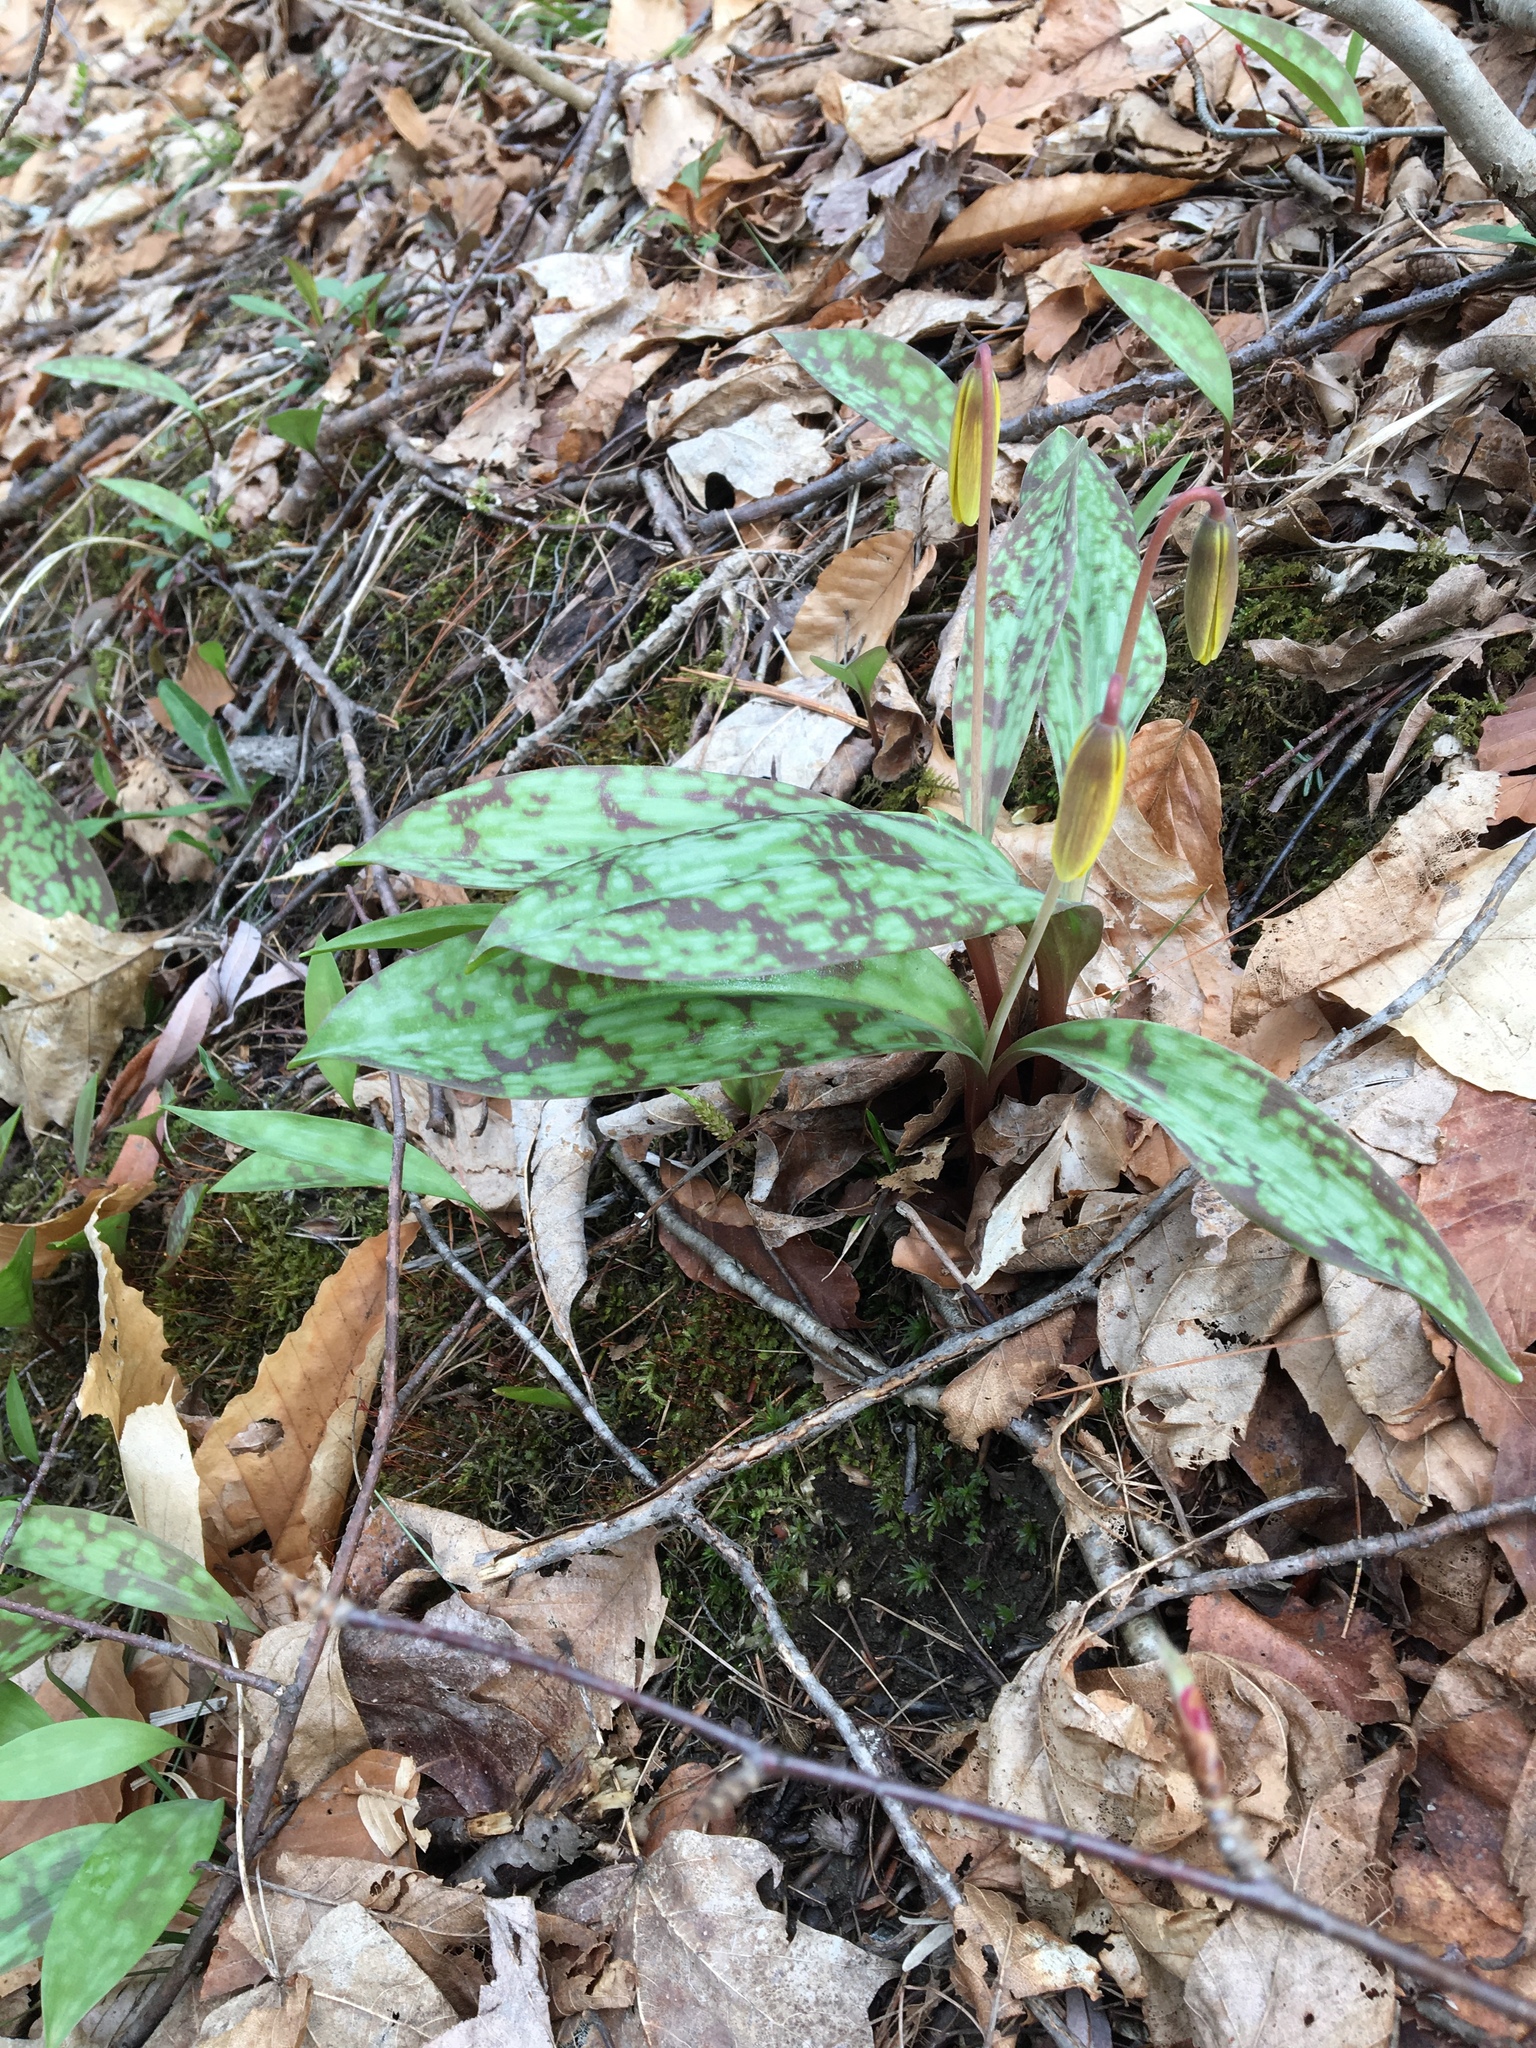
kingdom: Plantae
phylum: Tracheophyta
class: Liliopsida
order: Liliales
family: Liliaceae
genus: Erythronium
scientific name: Erythronium americanum
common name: Yellow adder's-tongue
